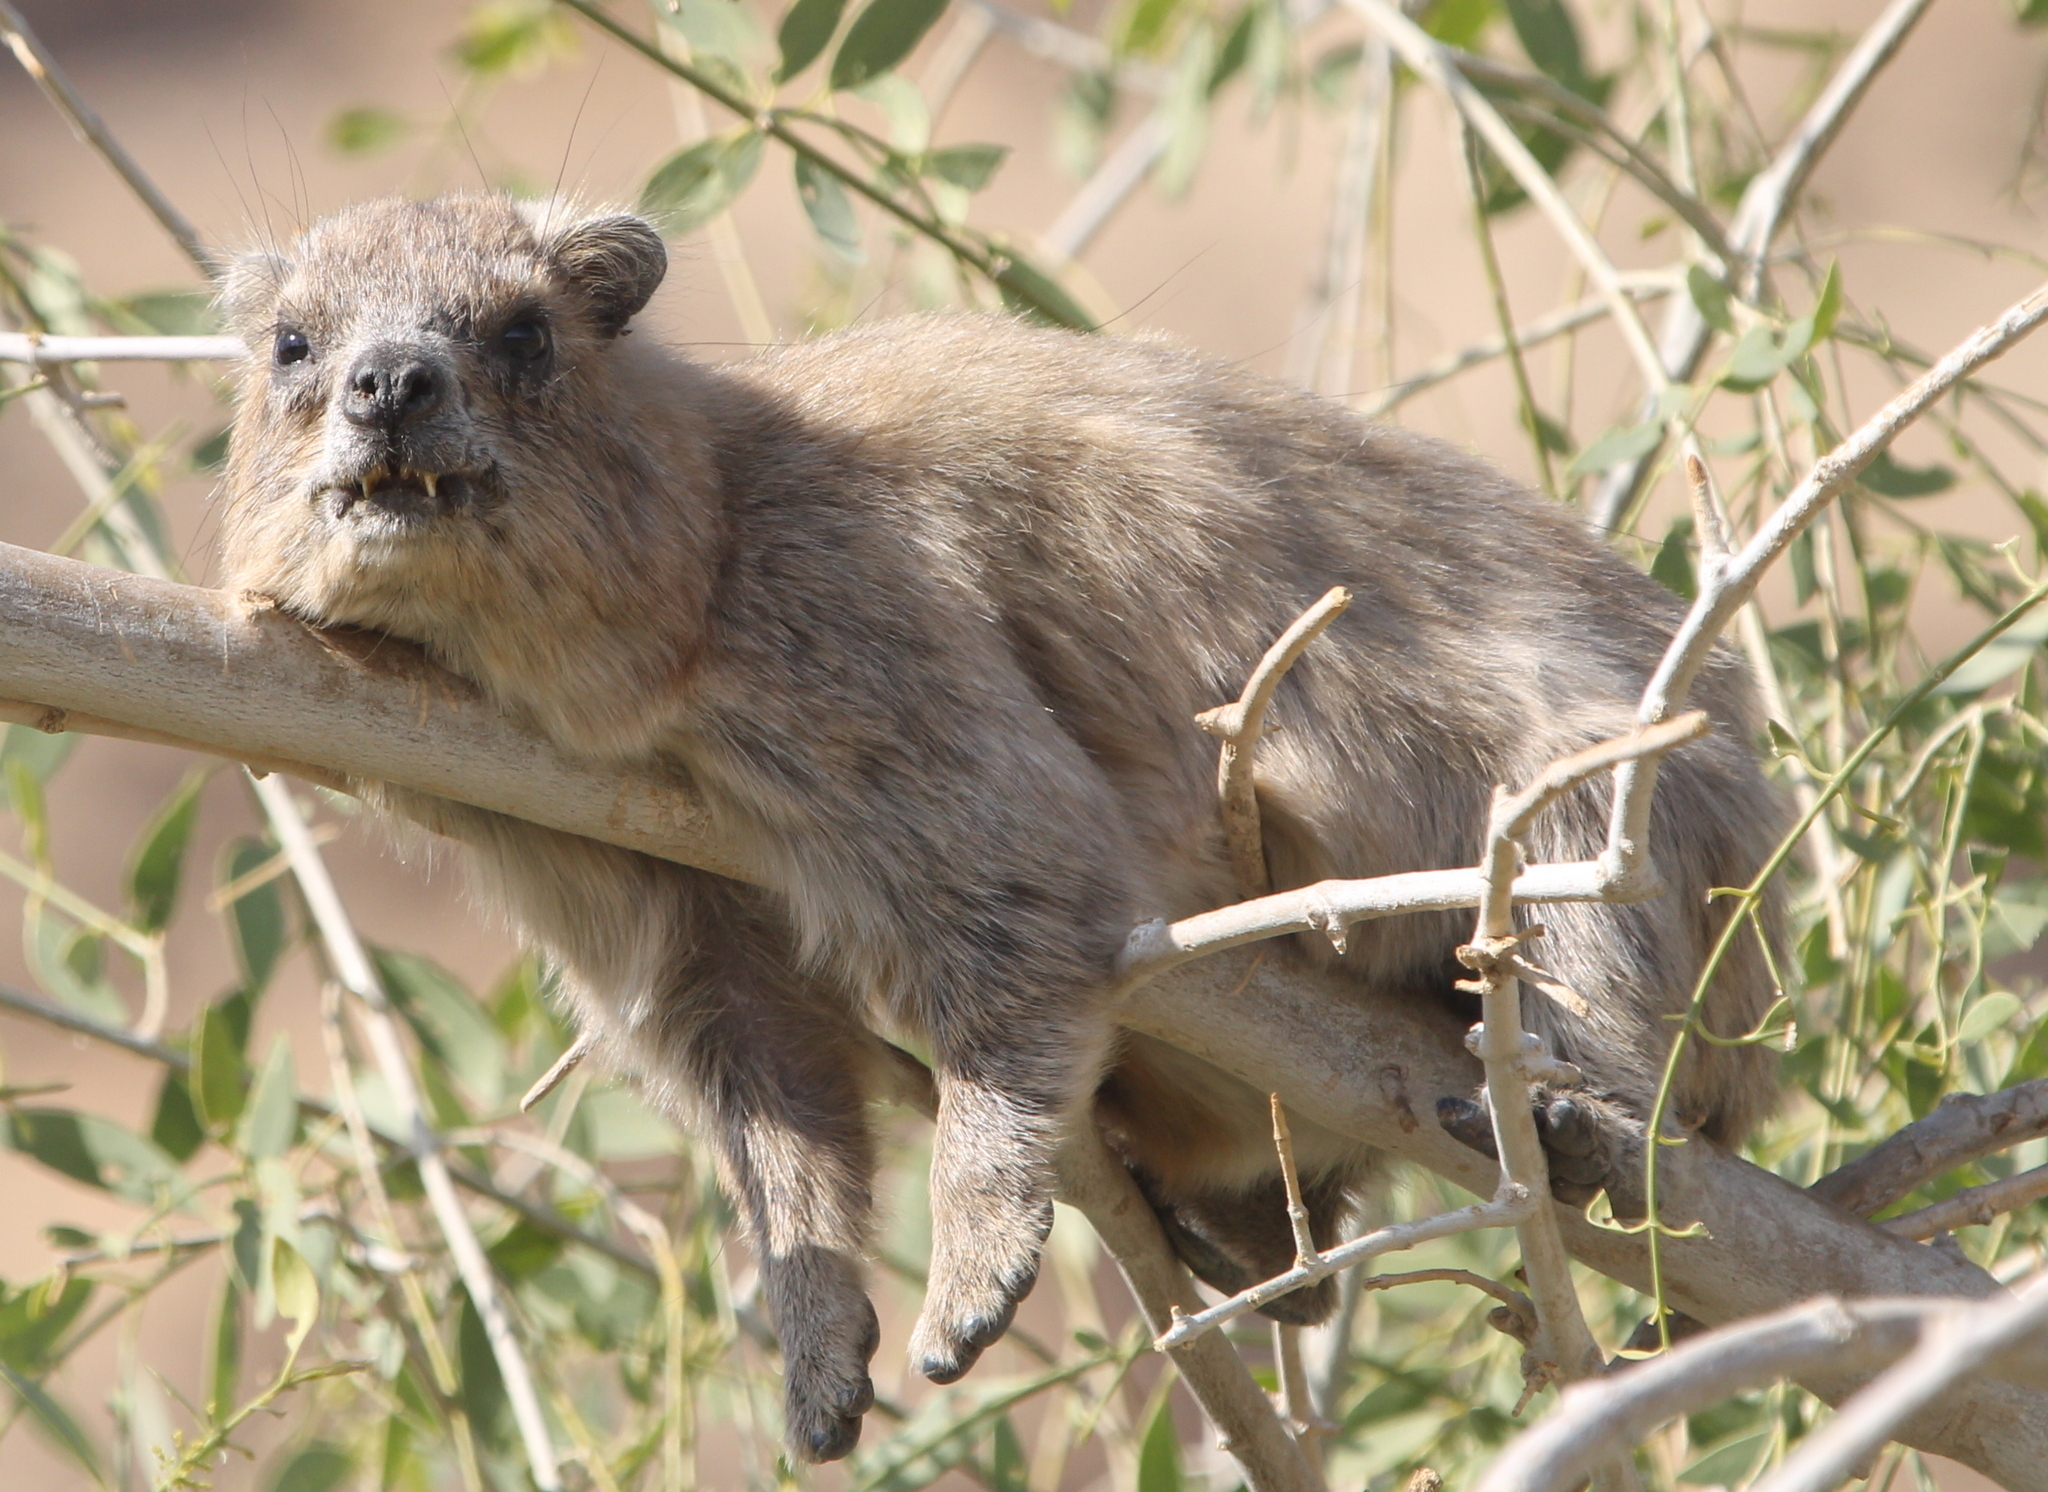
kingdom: Animalia
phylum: Chordata
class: Mammalia
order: Hyracoidea
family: Procaviidae
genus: Procavia
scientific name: Procavia capensis
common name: Rock hyrax
